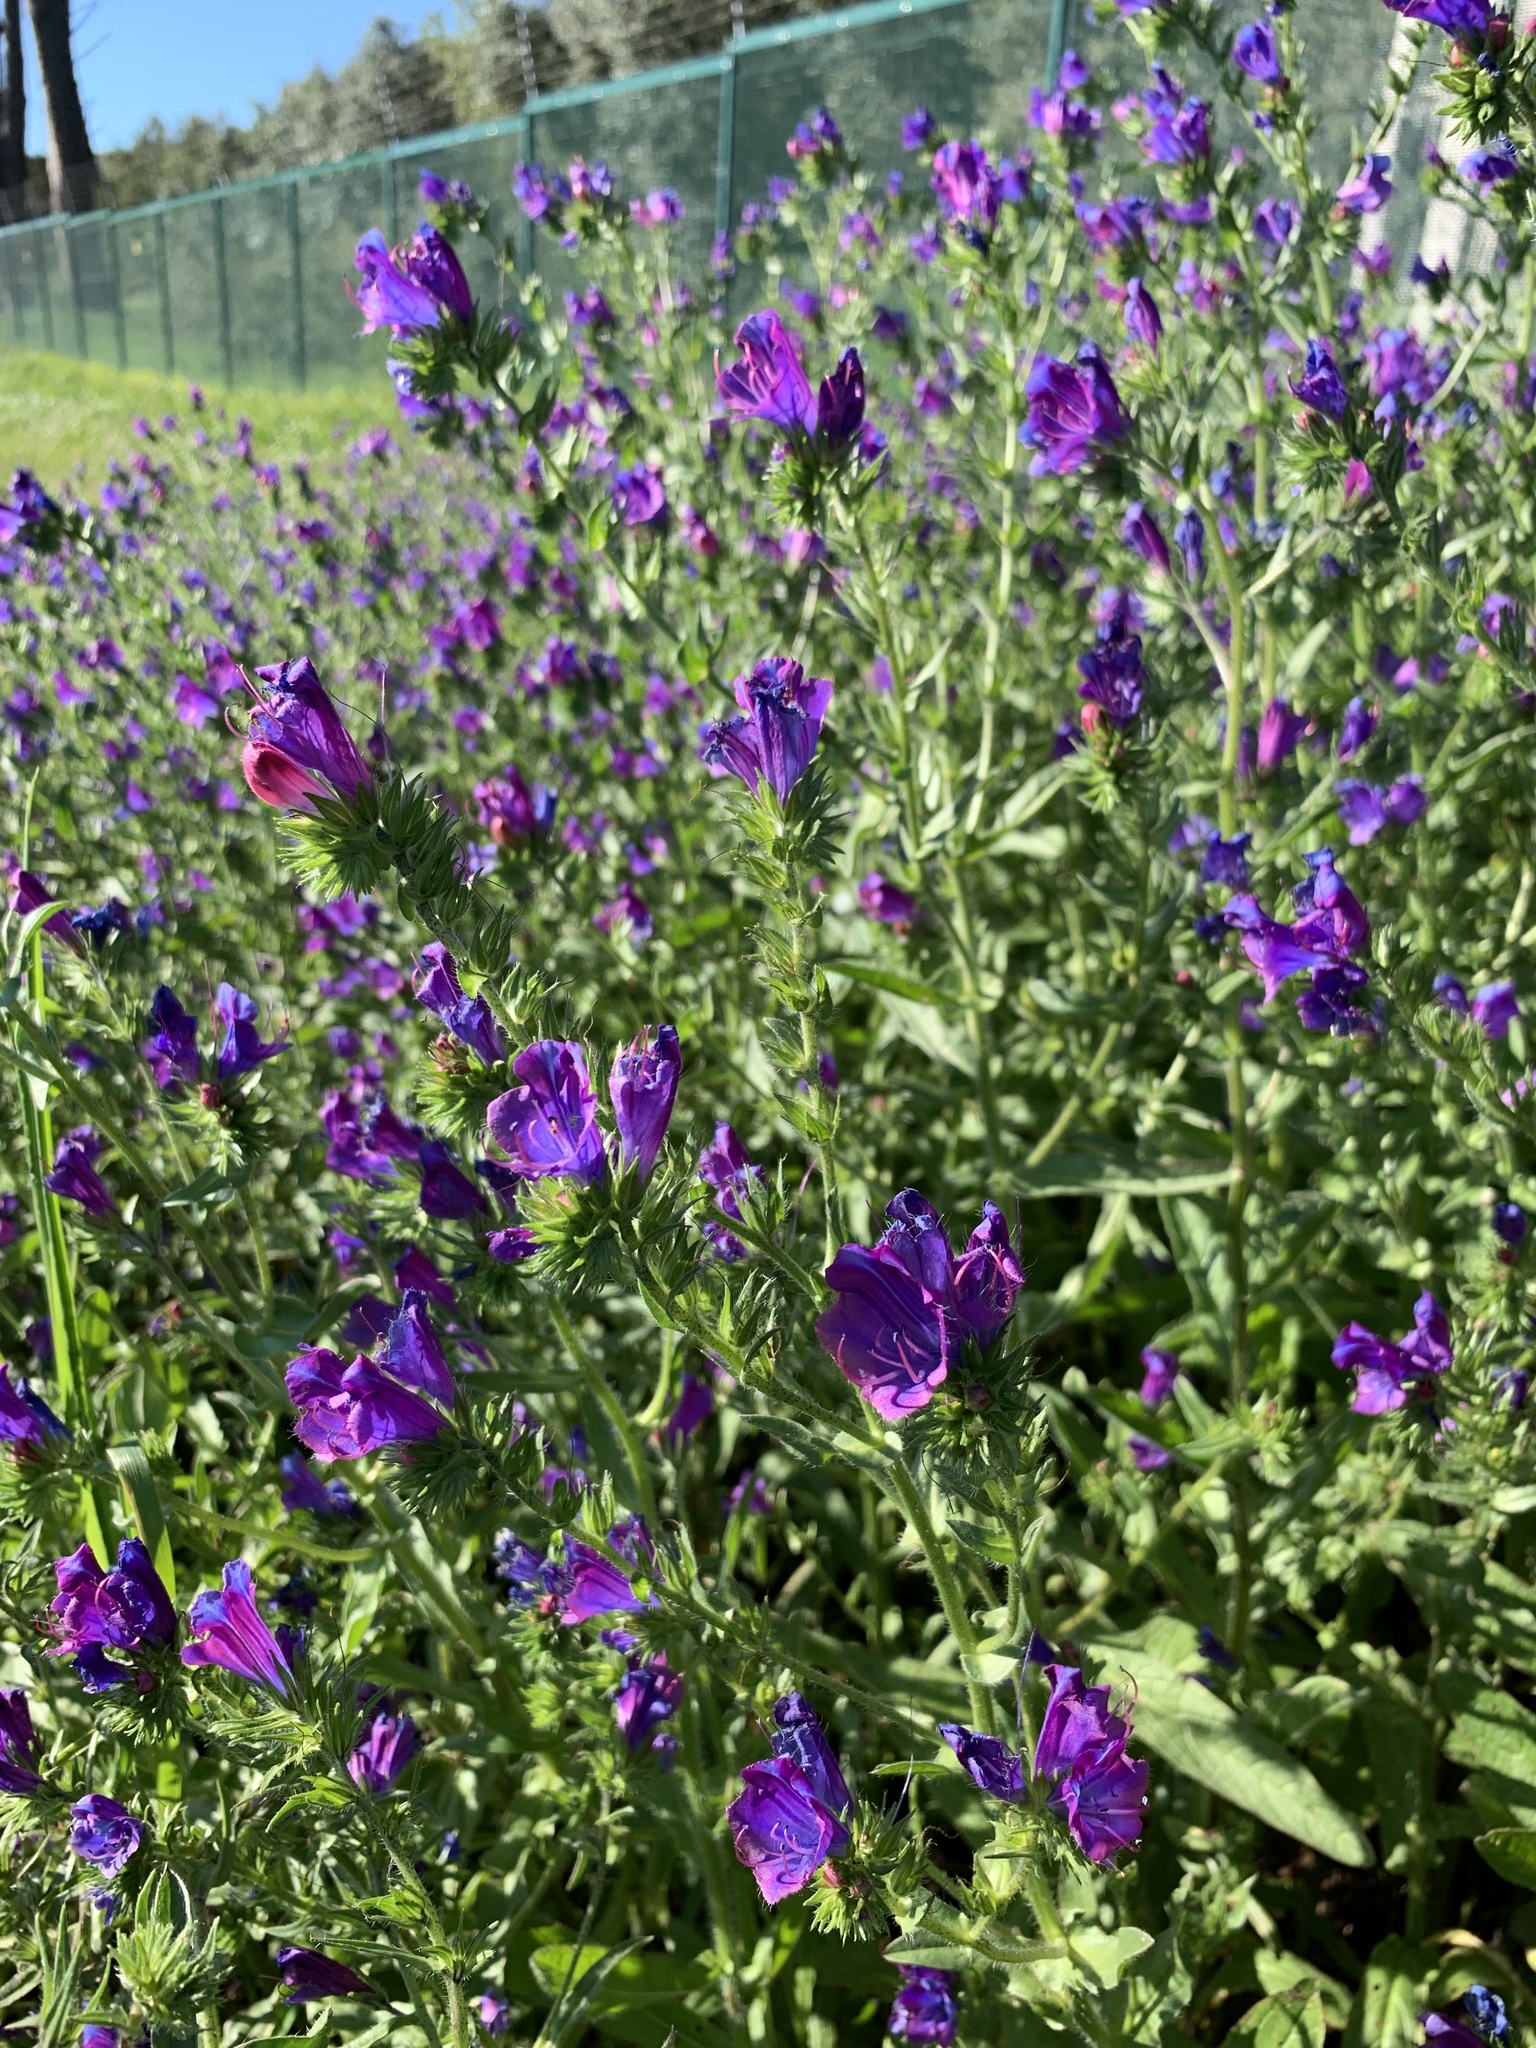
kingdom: Plantae
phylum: Tracheophyta
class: Magnoliopsida
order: Boraginales
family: Boraginaceae
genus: Echium
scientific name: Echium plantagineum
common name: Purple viper's-bugloss
